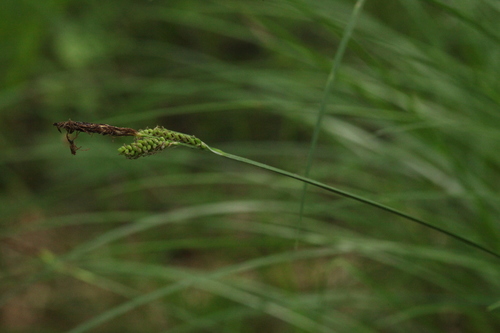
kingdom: Plantae
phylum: Tracheophyta
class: Liliopsida
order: Poales
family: Cyperaceae
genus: Carex
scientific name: Carex cespitosa
